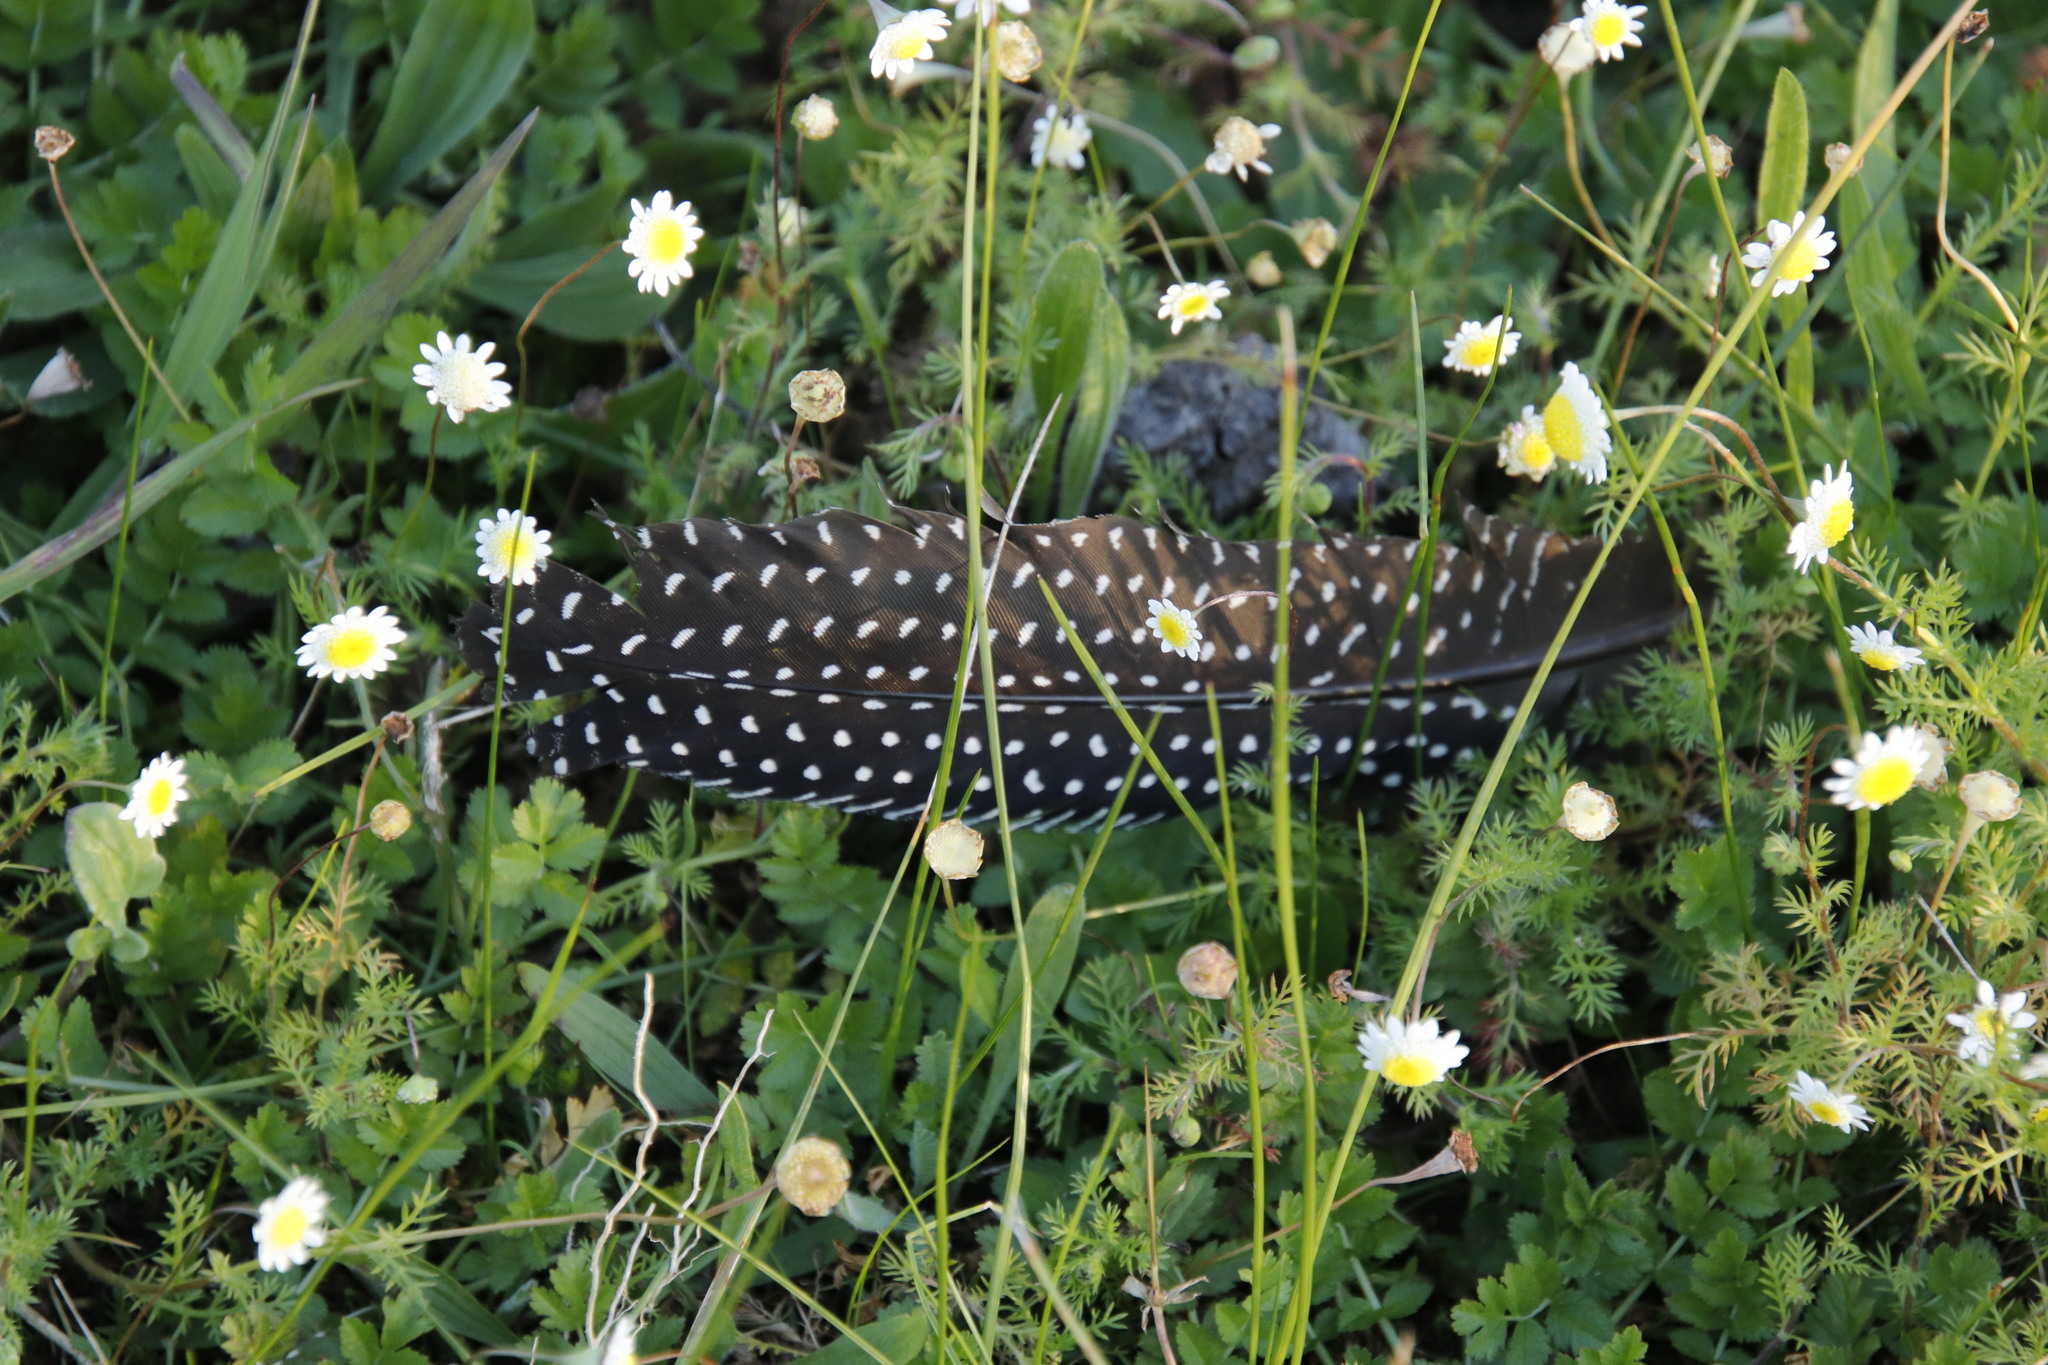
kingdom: Animalia
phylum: Chordata
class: Aves
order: Galliformes
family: Numididae
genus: Numida
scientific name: Numida meleagris
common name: Helmeted guineafowl
